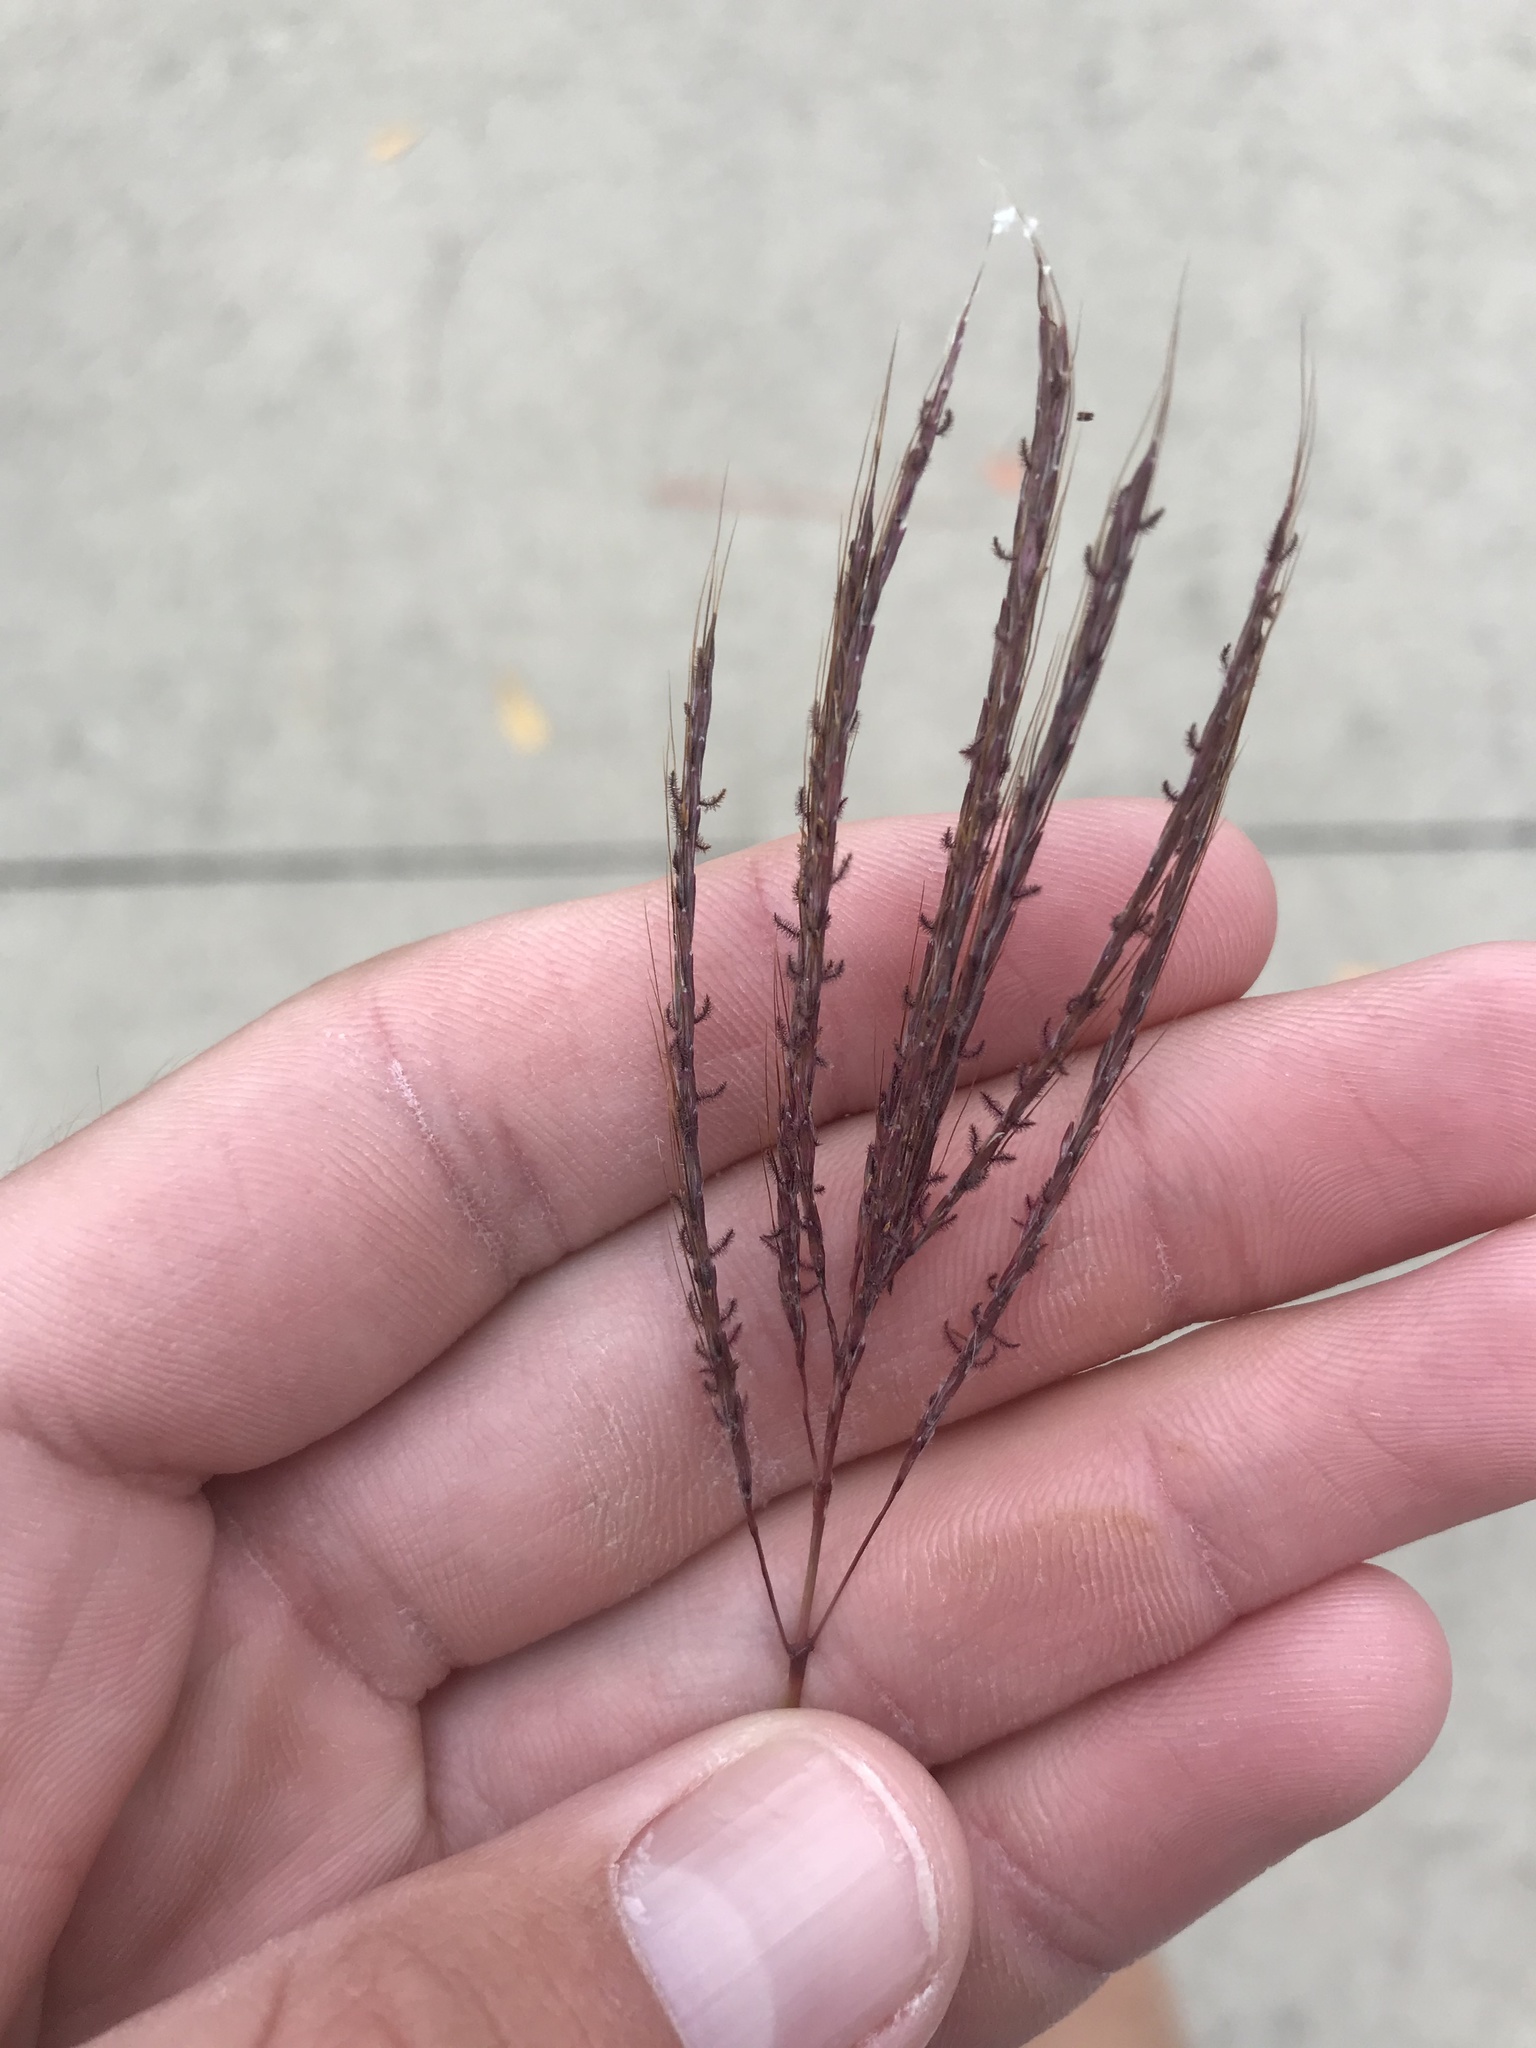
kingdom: Plantae
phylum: Tracheophyta
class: Liliopsida
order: Poales
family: Poaceae
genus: Bothriochloa
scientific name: Bothriochloa ischaemum
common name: Yellow bluestem
